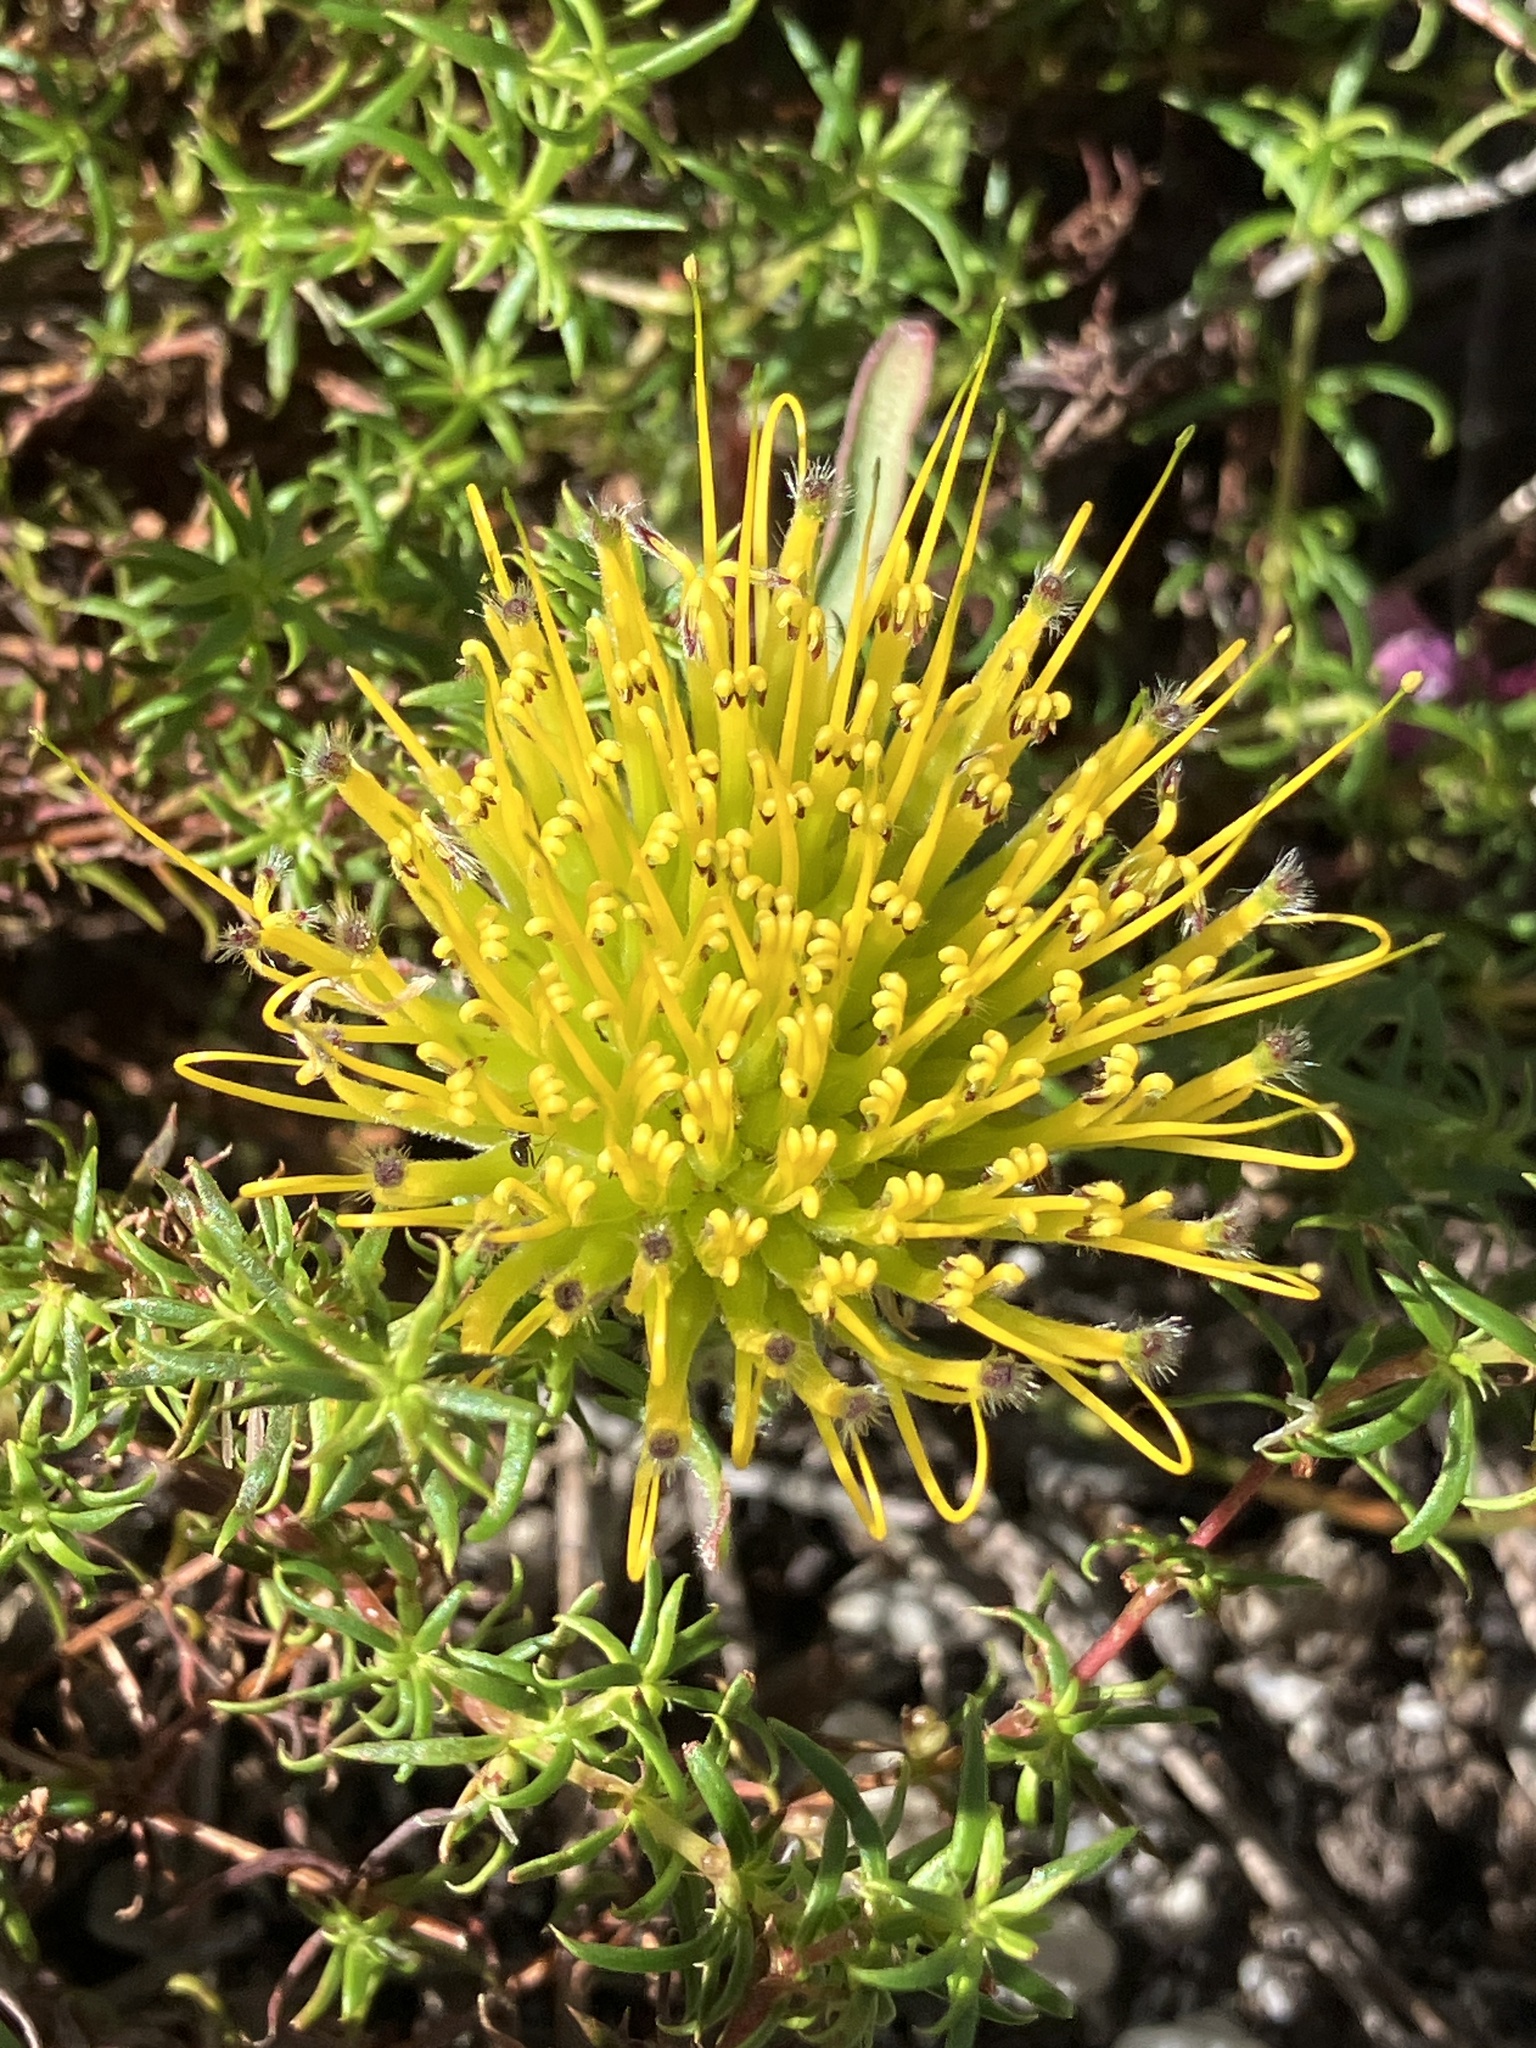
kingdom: Plantae
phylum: Tracheophyta
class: Magnoliopsida
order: Proteales
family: Proteaceae
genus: Leucospermum
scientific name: Leucospermum gracile
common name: Hermanus pincushion
